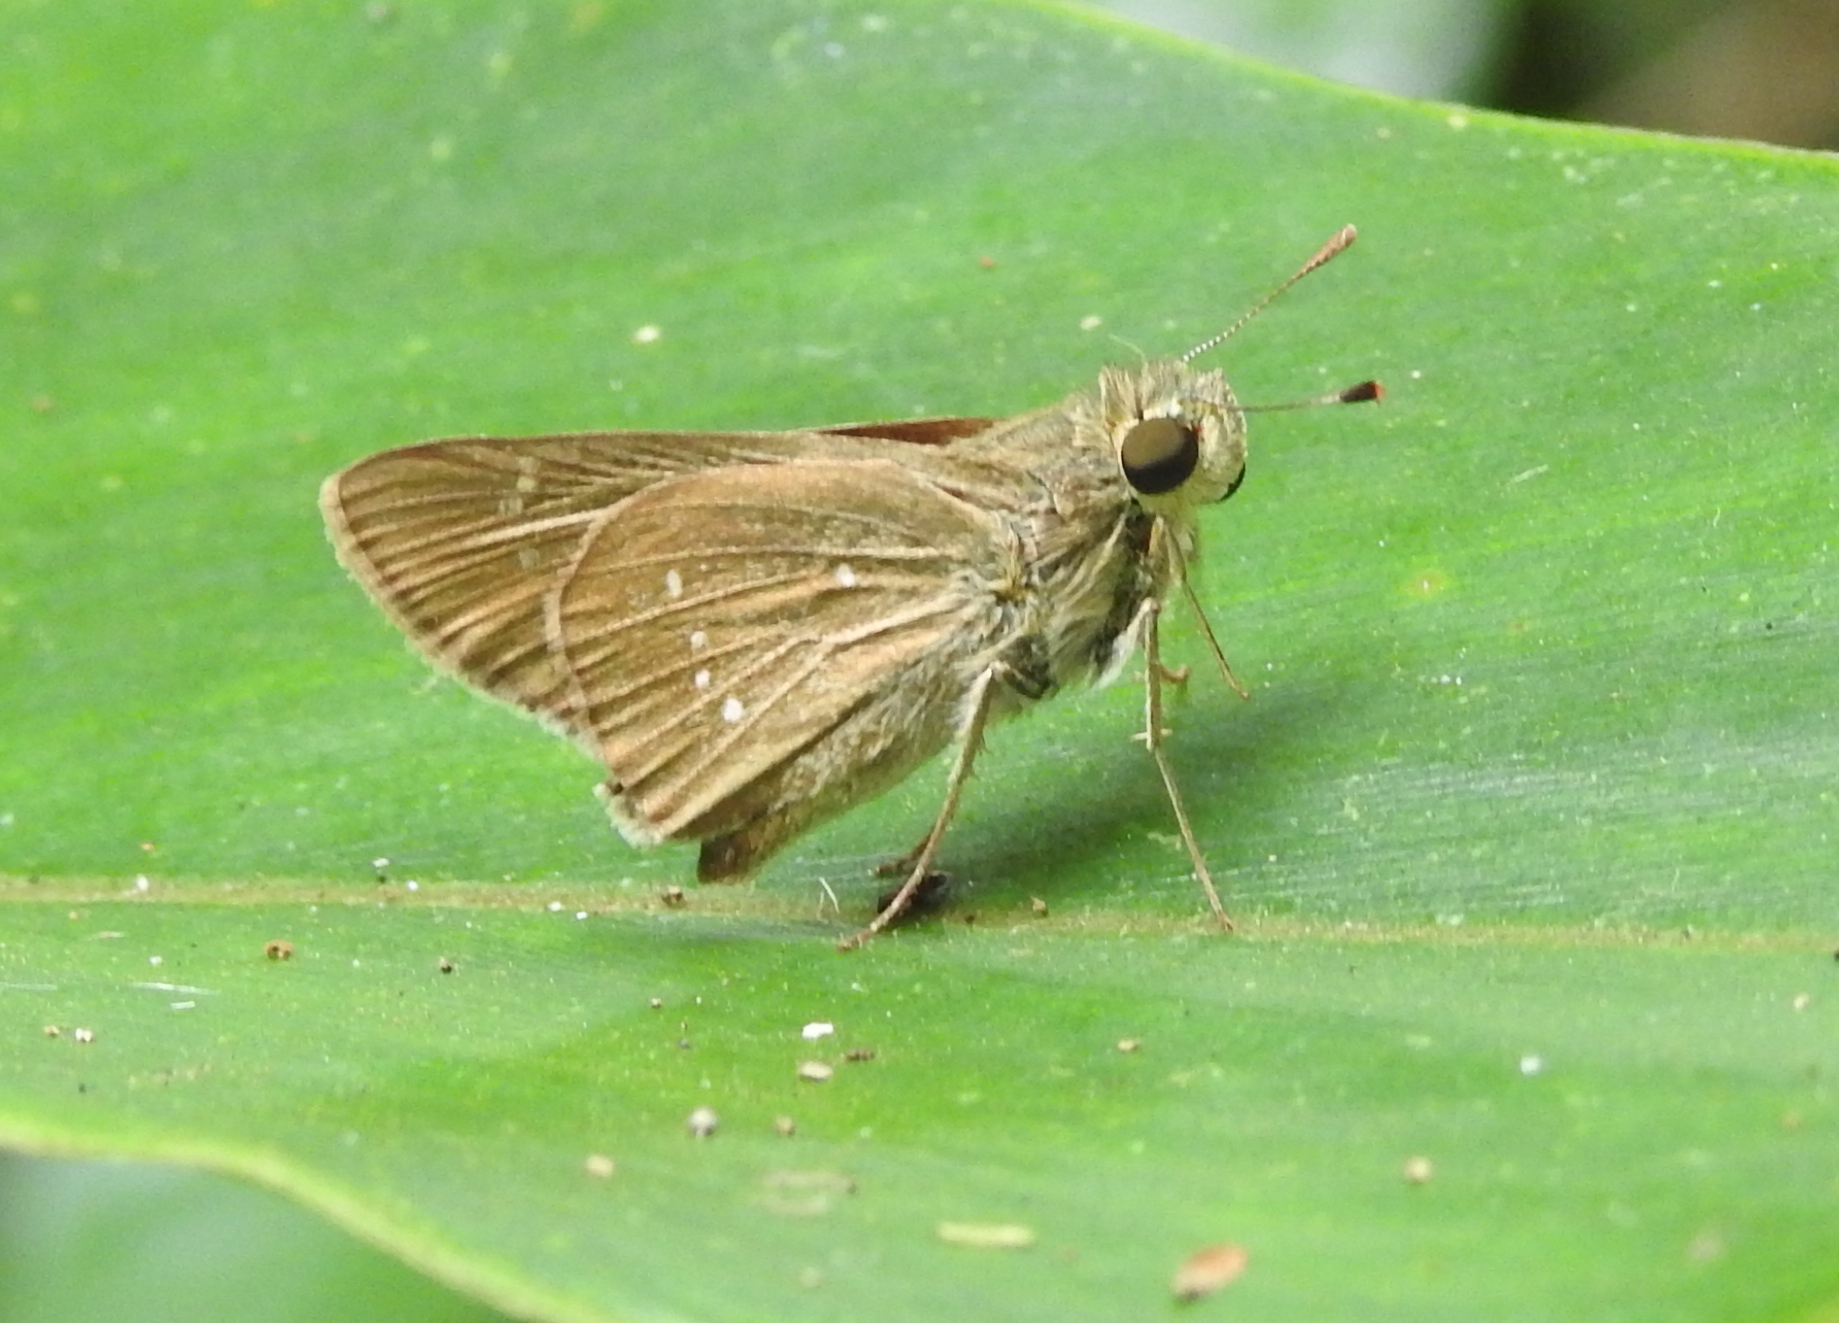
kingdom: Animalia
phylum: Arthropoda
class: Insecta
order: Lepidoptera
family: Hesperiidae
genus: Pelopidas
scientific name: Pelopidas mathias
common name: Black-branded swift
